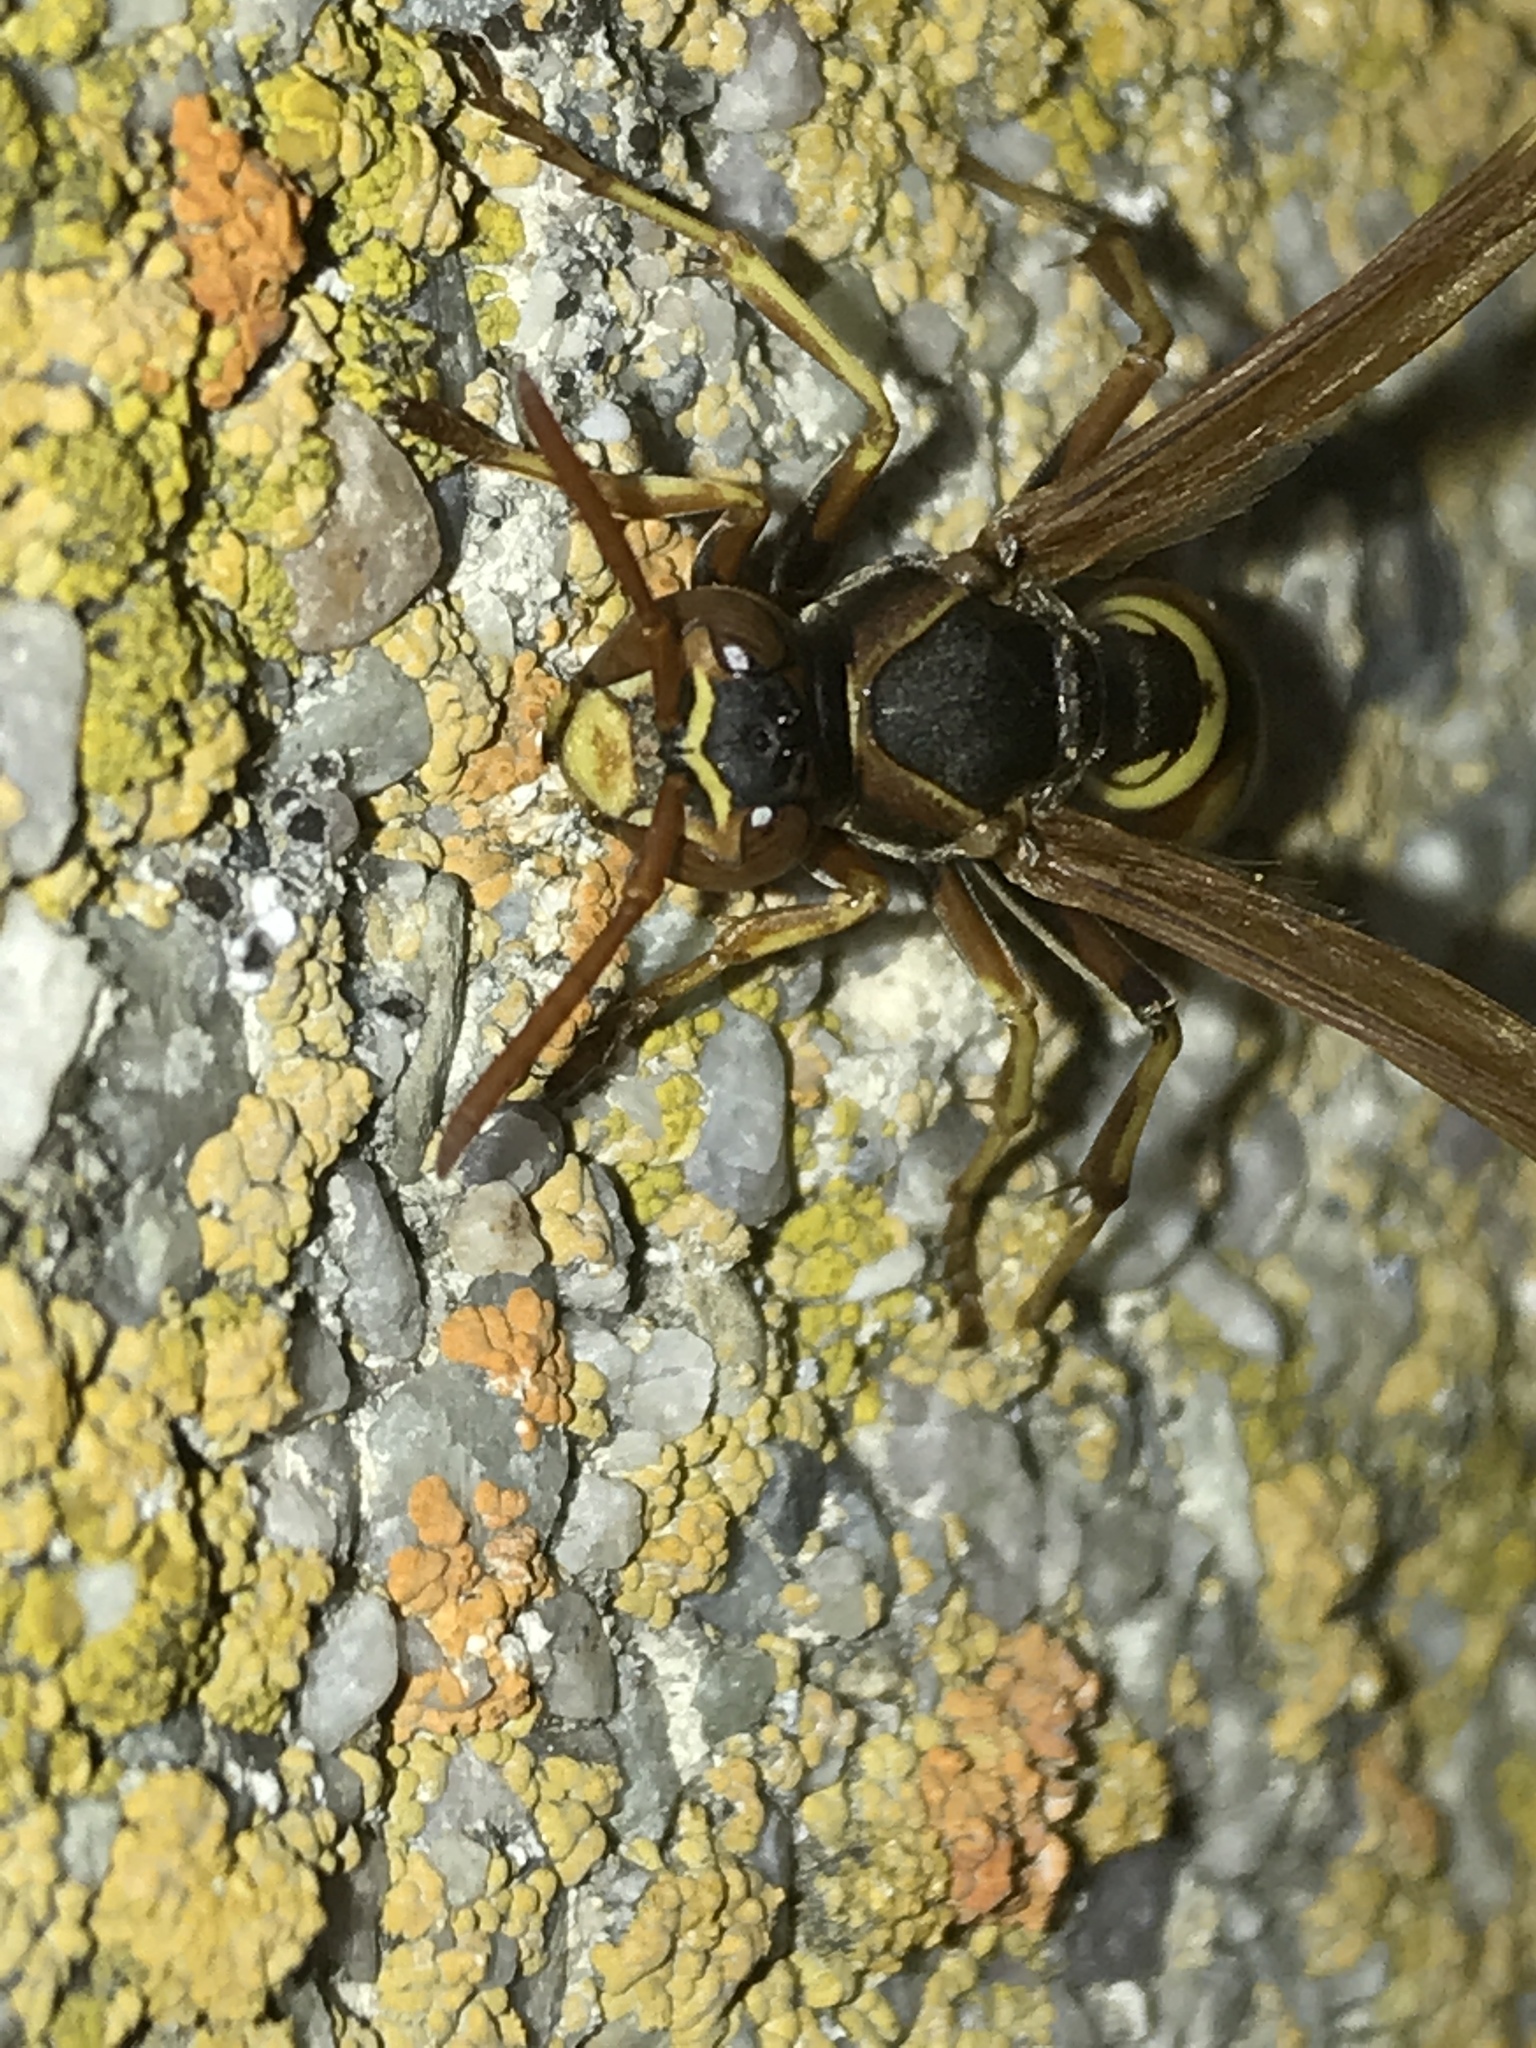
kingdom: Animalia
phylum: Arthropoda
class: Insecta
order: Hymenoptera
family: Eumenidae
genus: Polistes
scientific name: Polistes aurifer
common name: Paper wasp
